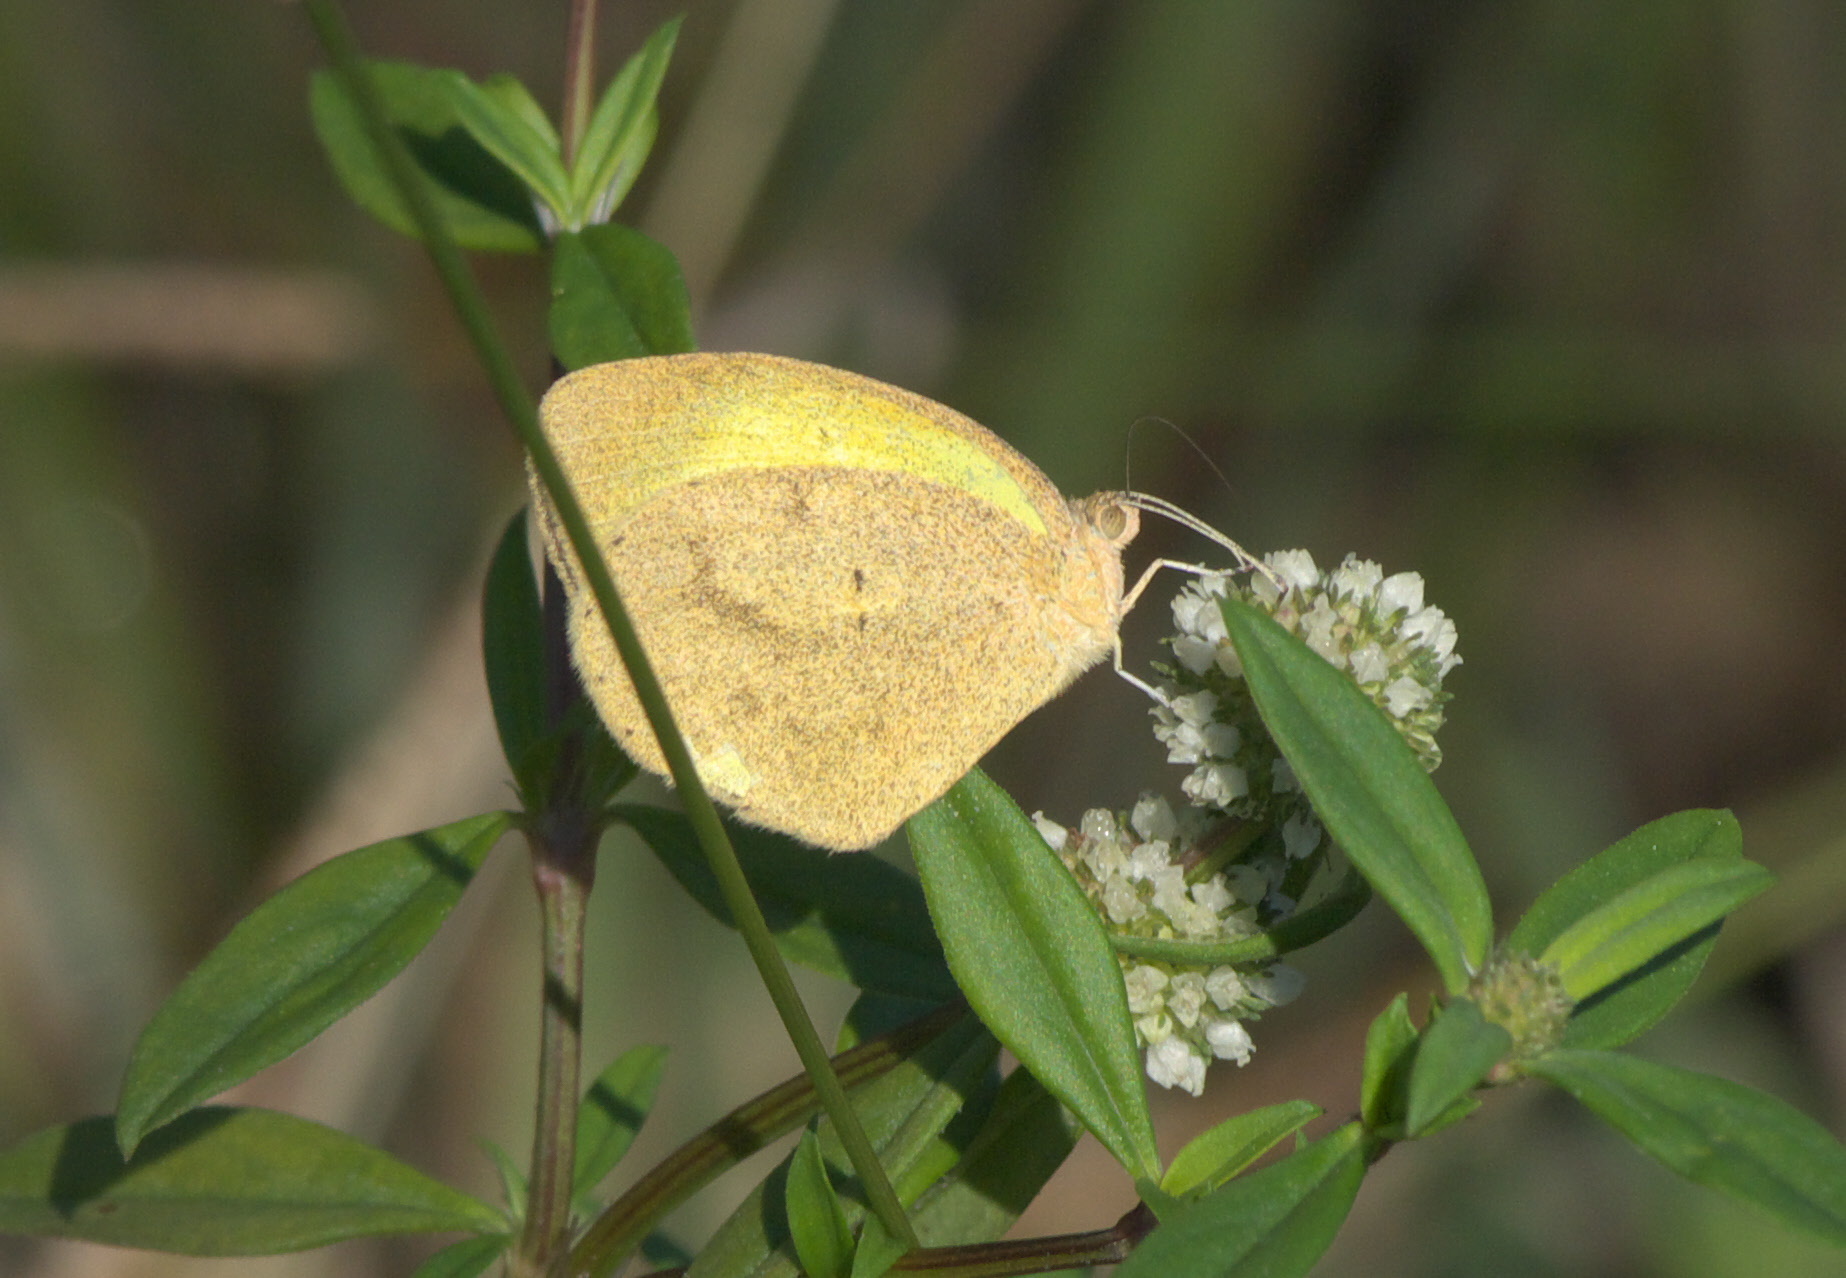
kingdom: Animalia
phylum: Arthropoda
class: Insecta
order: Lepidoptera
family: Pieridae
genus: Eurema
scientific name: Eurema daira
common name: Barred sulphur
